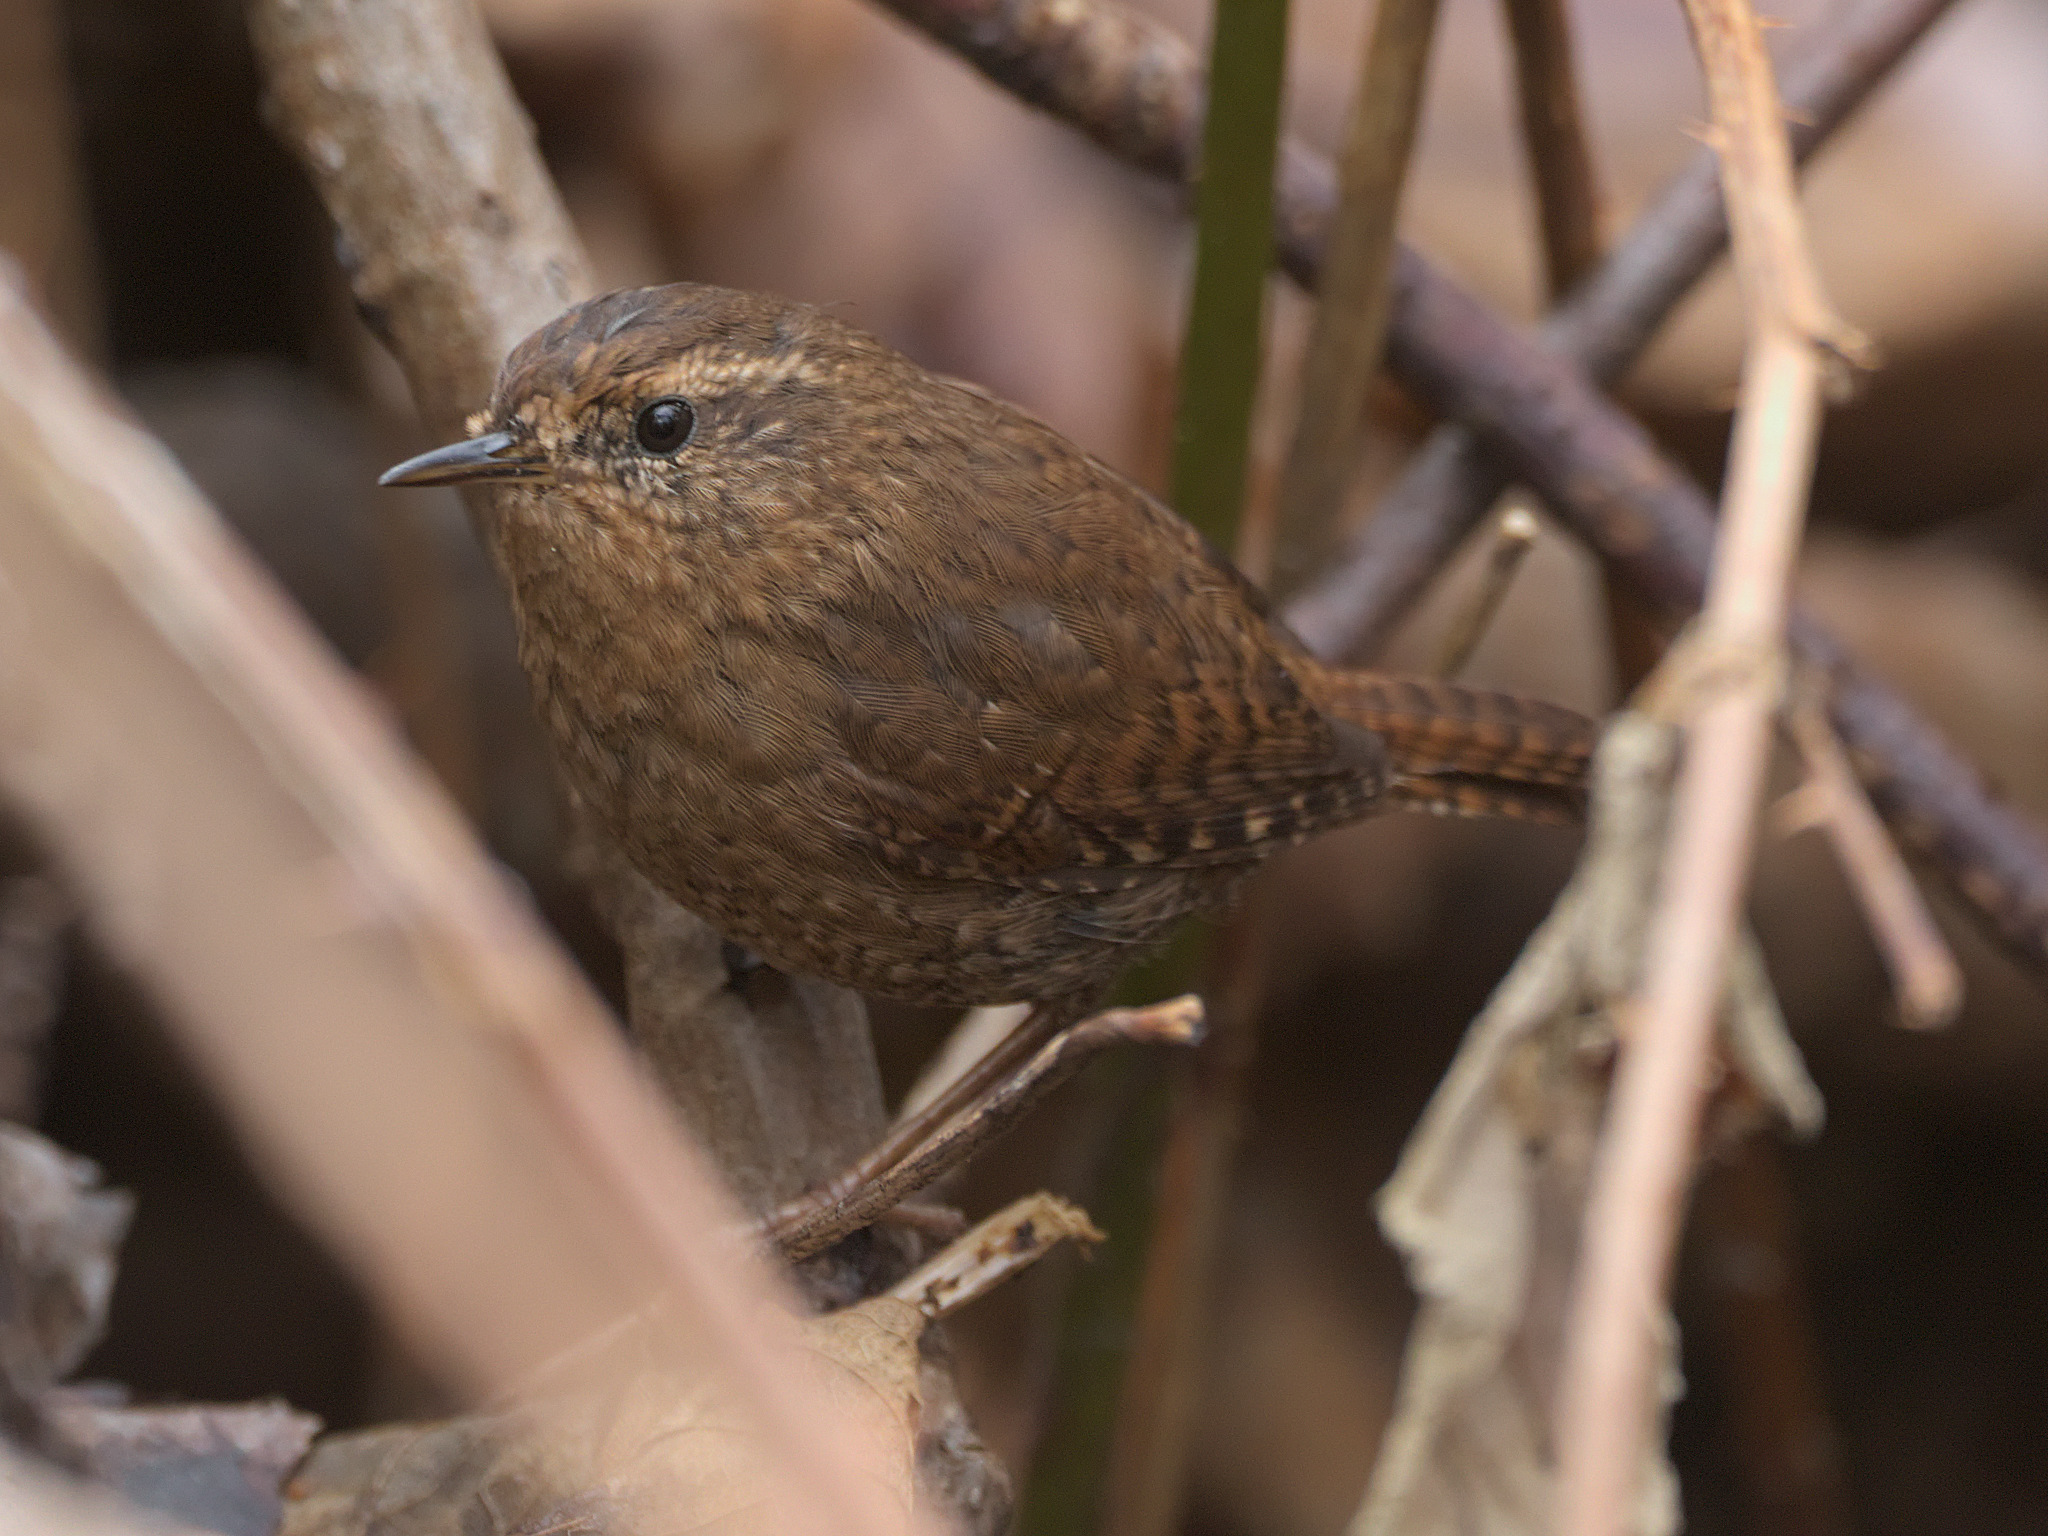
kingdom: Animalia
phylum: Chordata
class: Aves
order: Passeriformes
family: Troglodytidae
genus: Troglodytes
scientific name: Troglodytes pacificus
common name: Pacific wren
